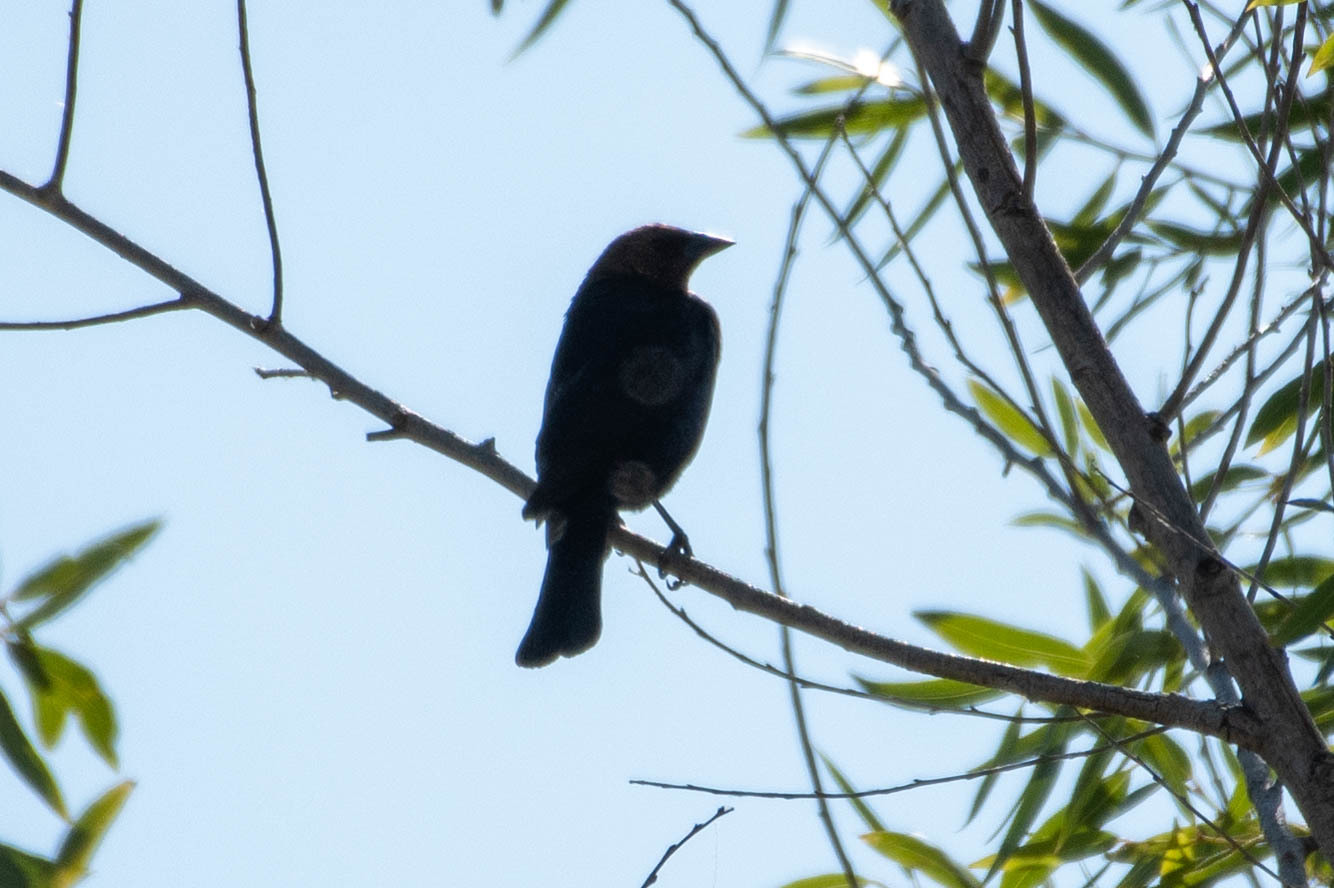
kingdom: Animalia
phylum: Chordata
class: Aves
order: Passeriformes
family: Icteridae
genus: Molothrus
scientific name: Molothrus ater
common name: Brown-headed cowbird
